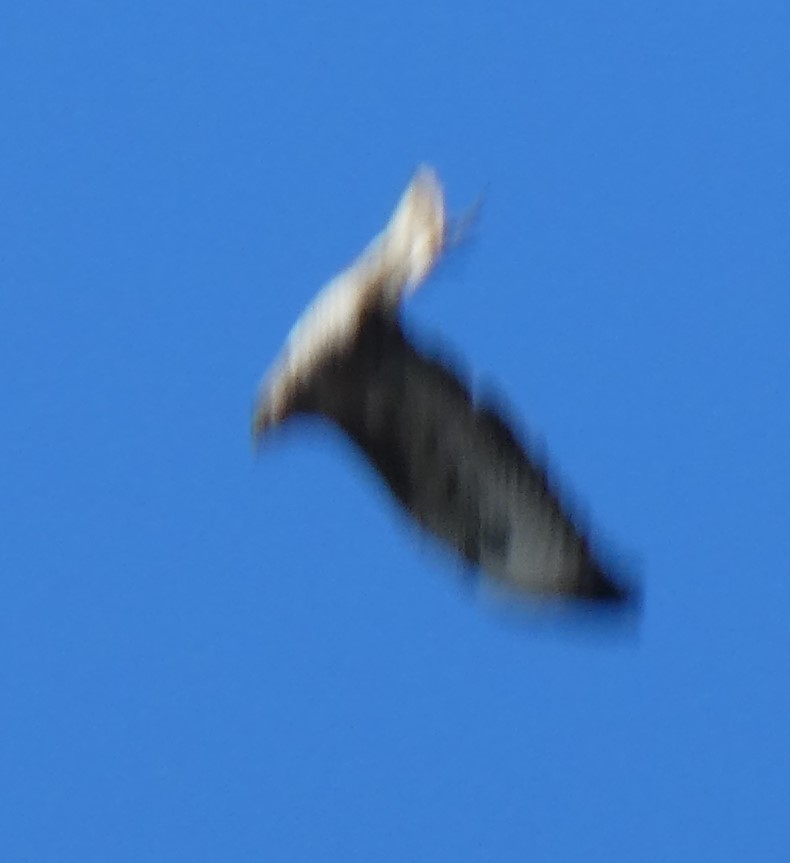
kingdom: Animalia
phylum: Chordata
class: Aves
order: Accipitriformes
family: Accipitridae
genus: Buteo
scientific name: Buteo buteo
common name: Common buzzard
